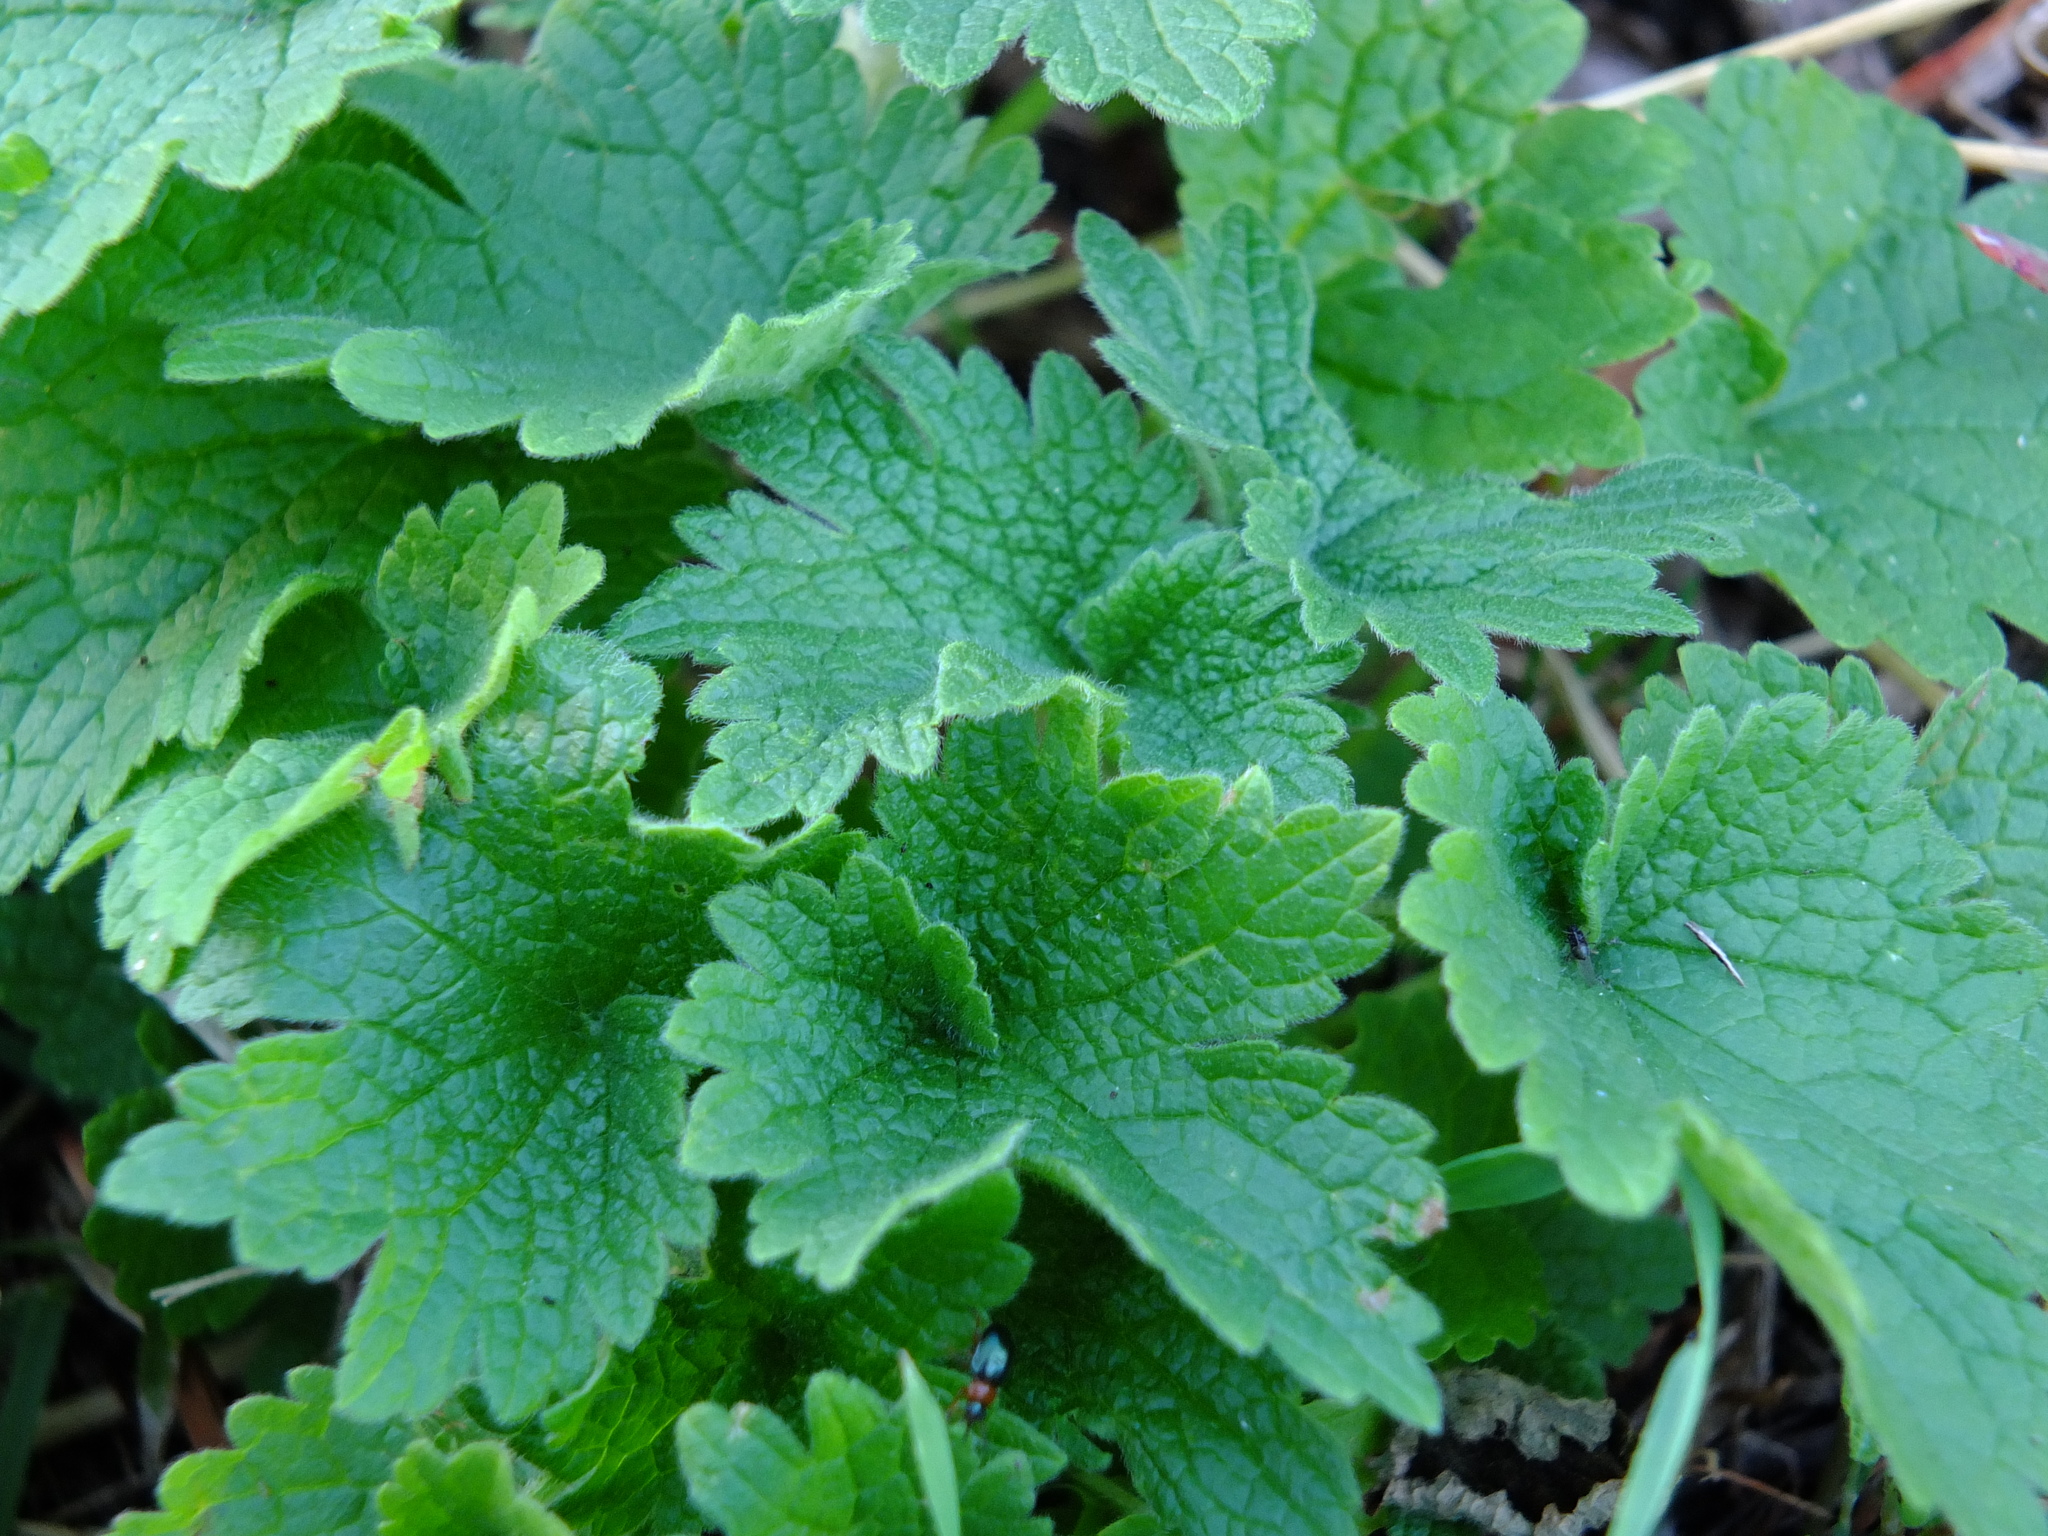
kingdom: Plantae
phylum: Tracheophyta
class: Magnoliopsida
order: Lamiales
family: Lamiaceae
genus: Leonurus
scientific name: Leonurus quinquelobatus
